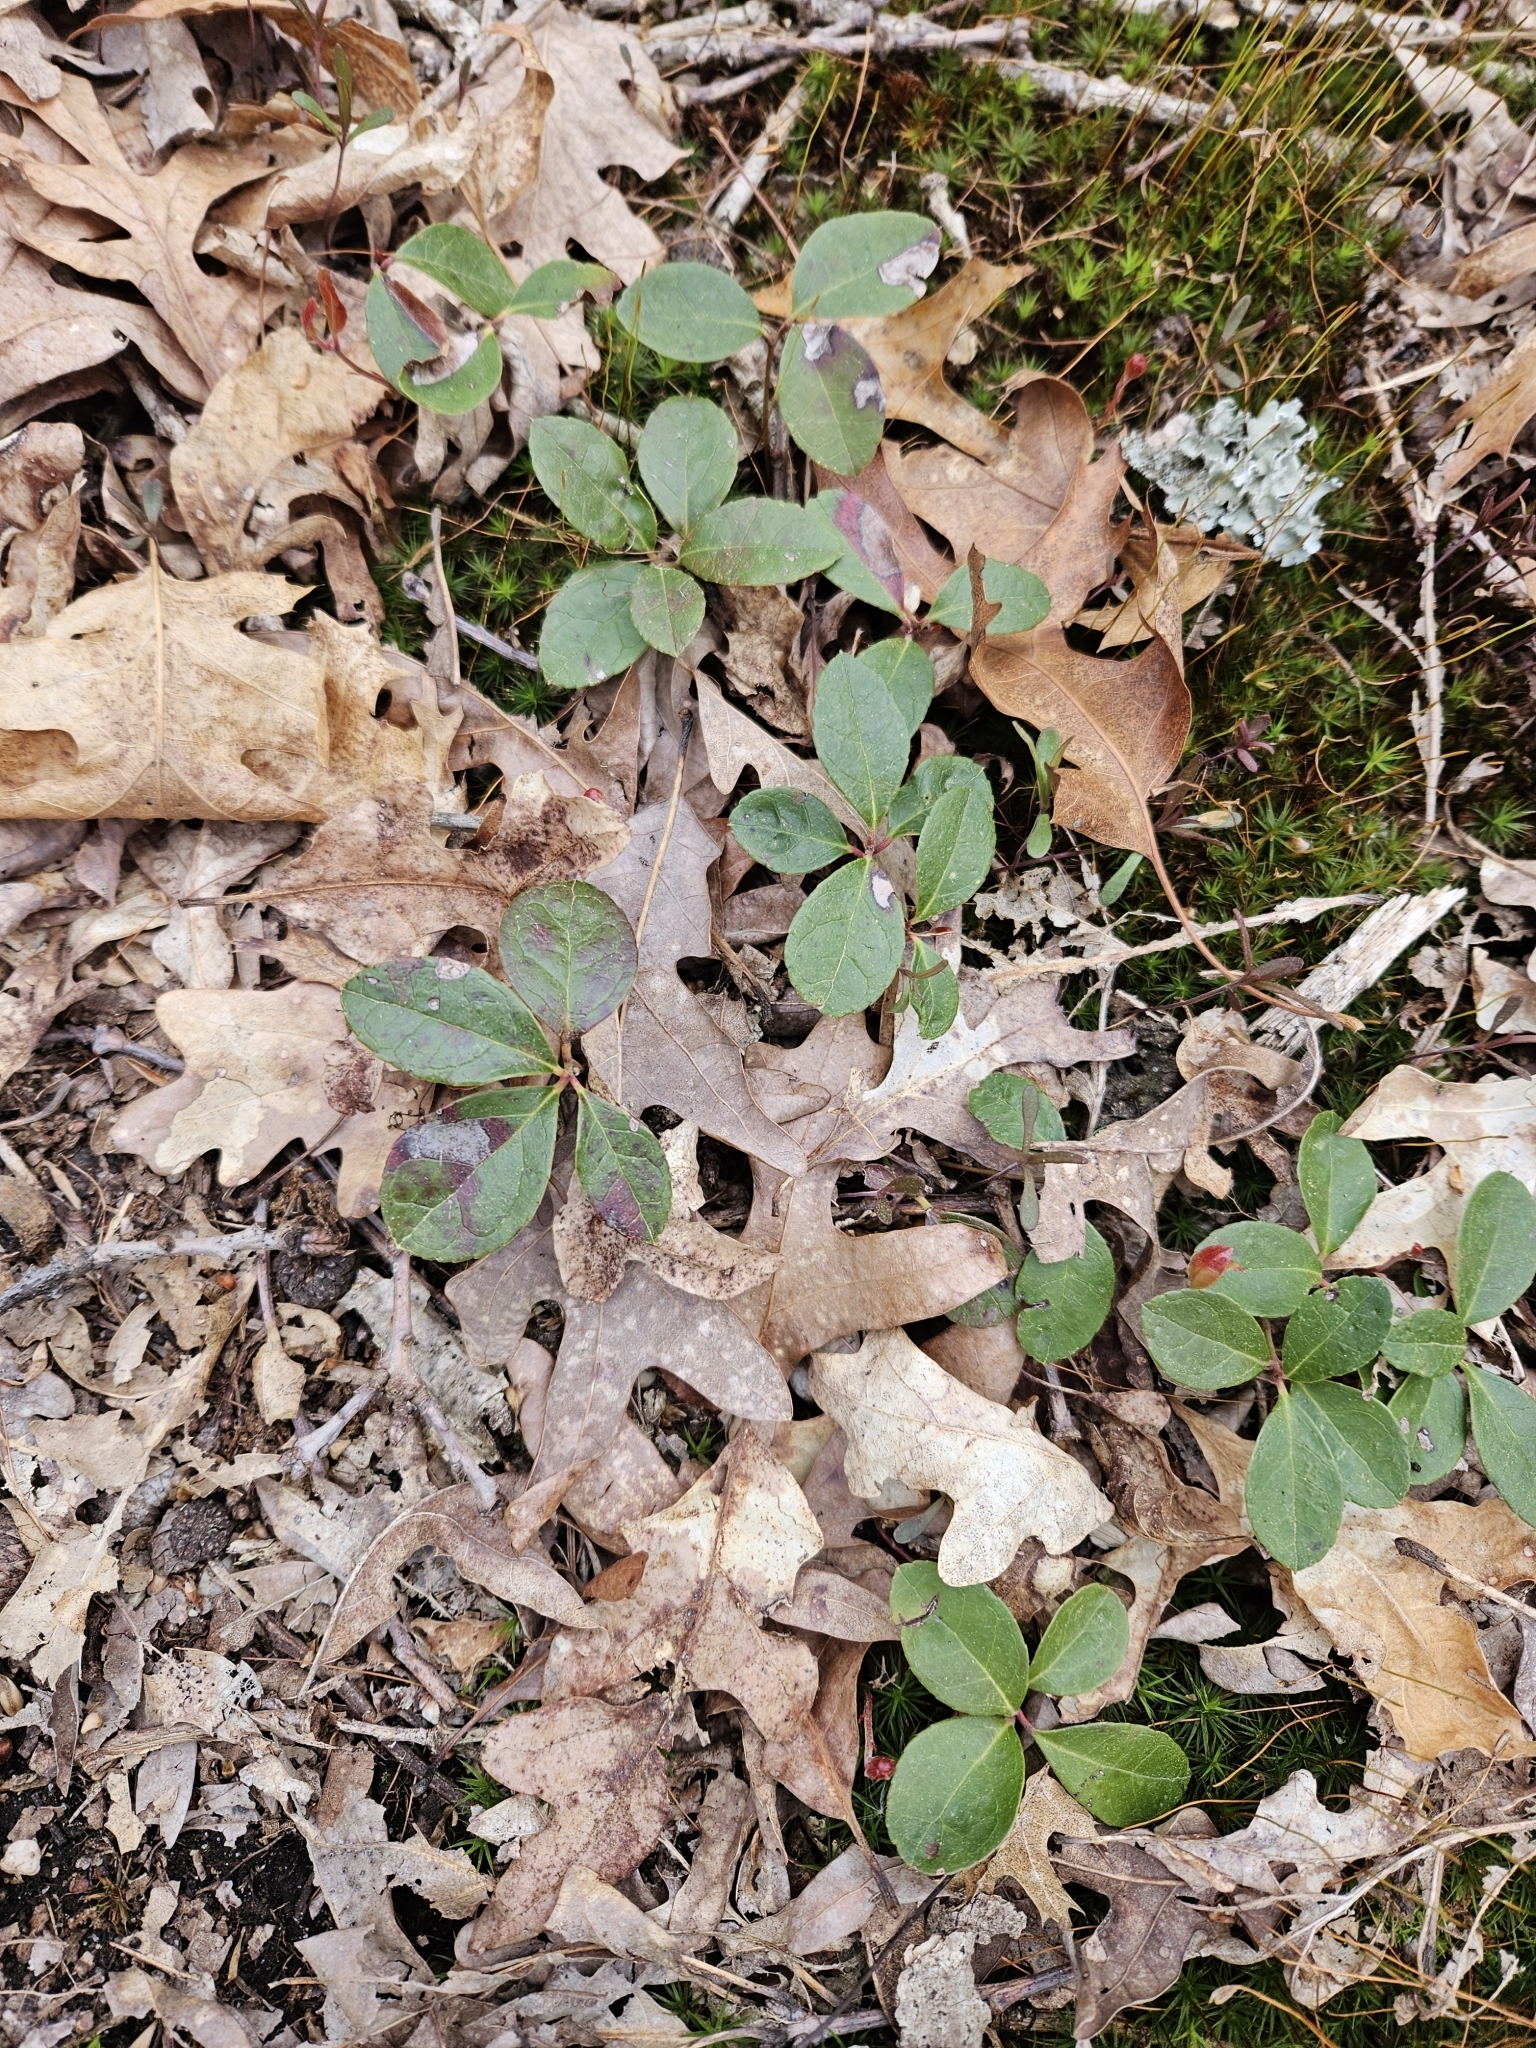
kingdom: Plantae
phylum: Tracheophyta
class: Magnoliopsida
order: Ericales
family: Ericaceae
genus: Gaultheria
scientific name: Gaultheria procumbens
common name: Checkerberry
